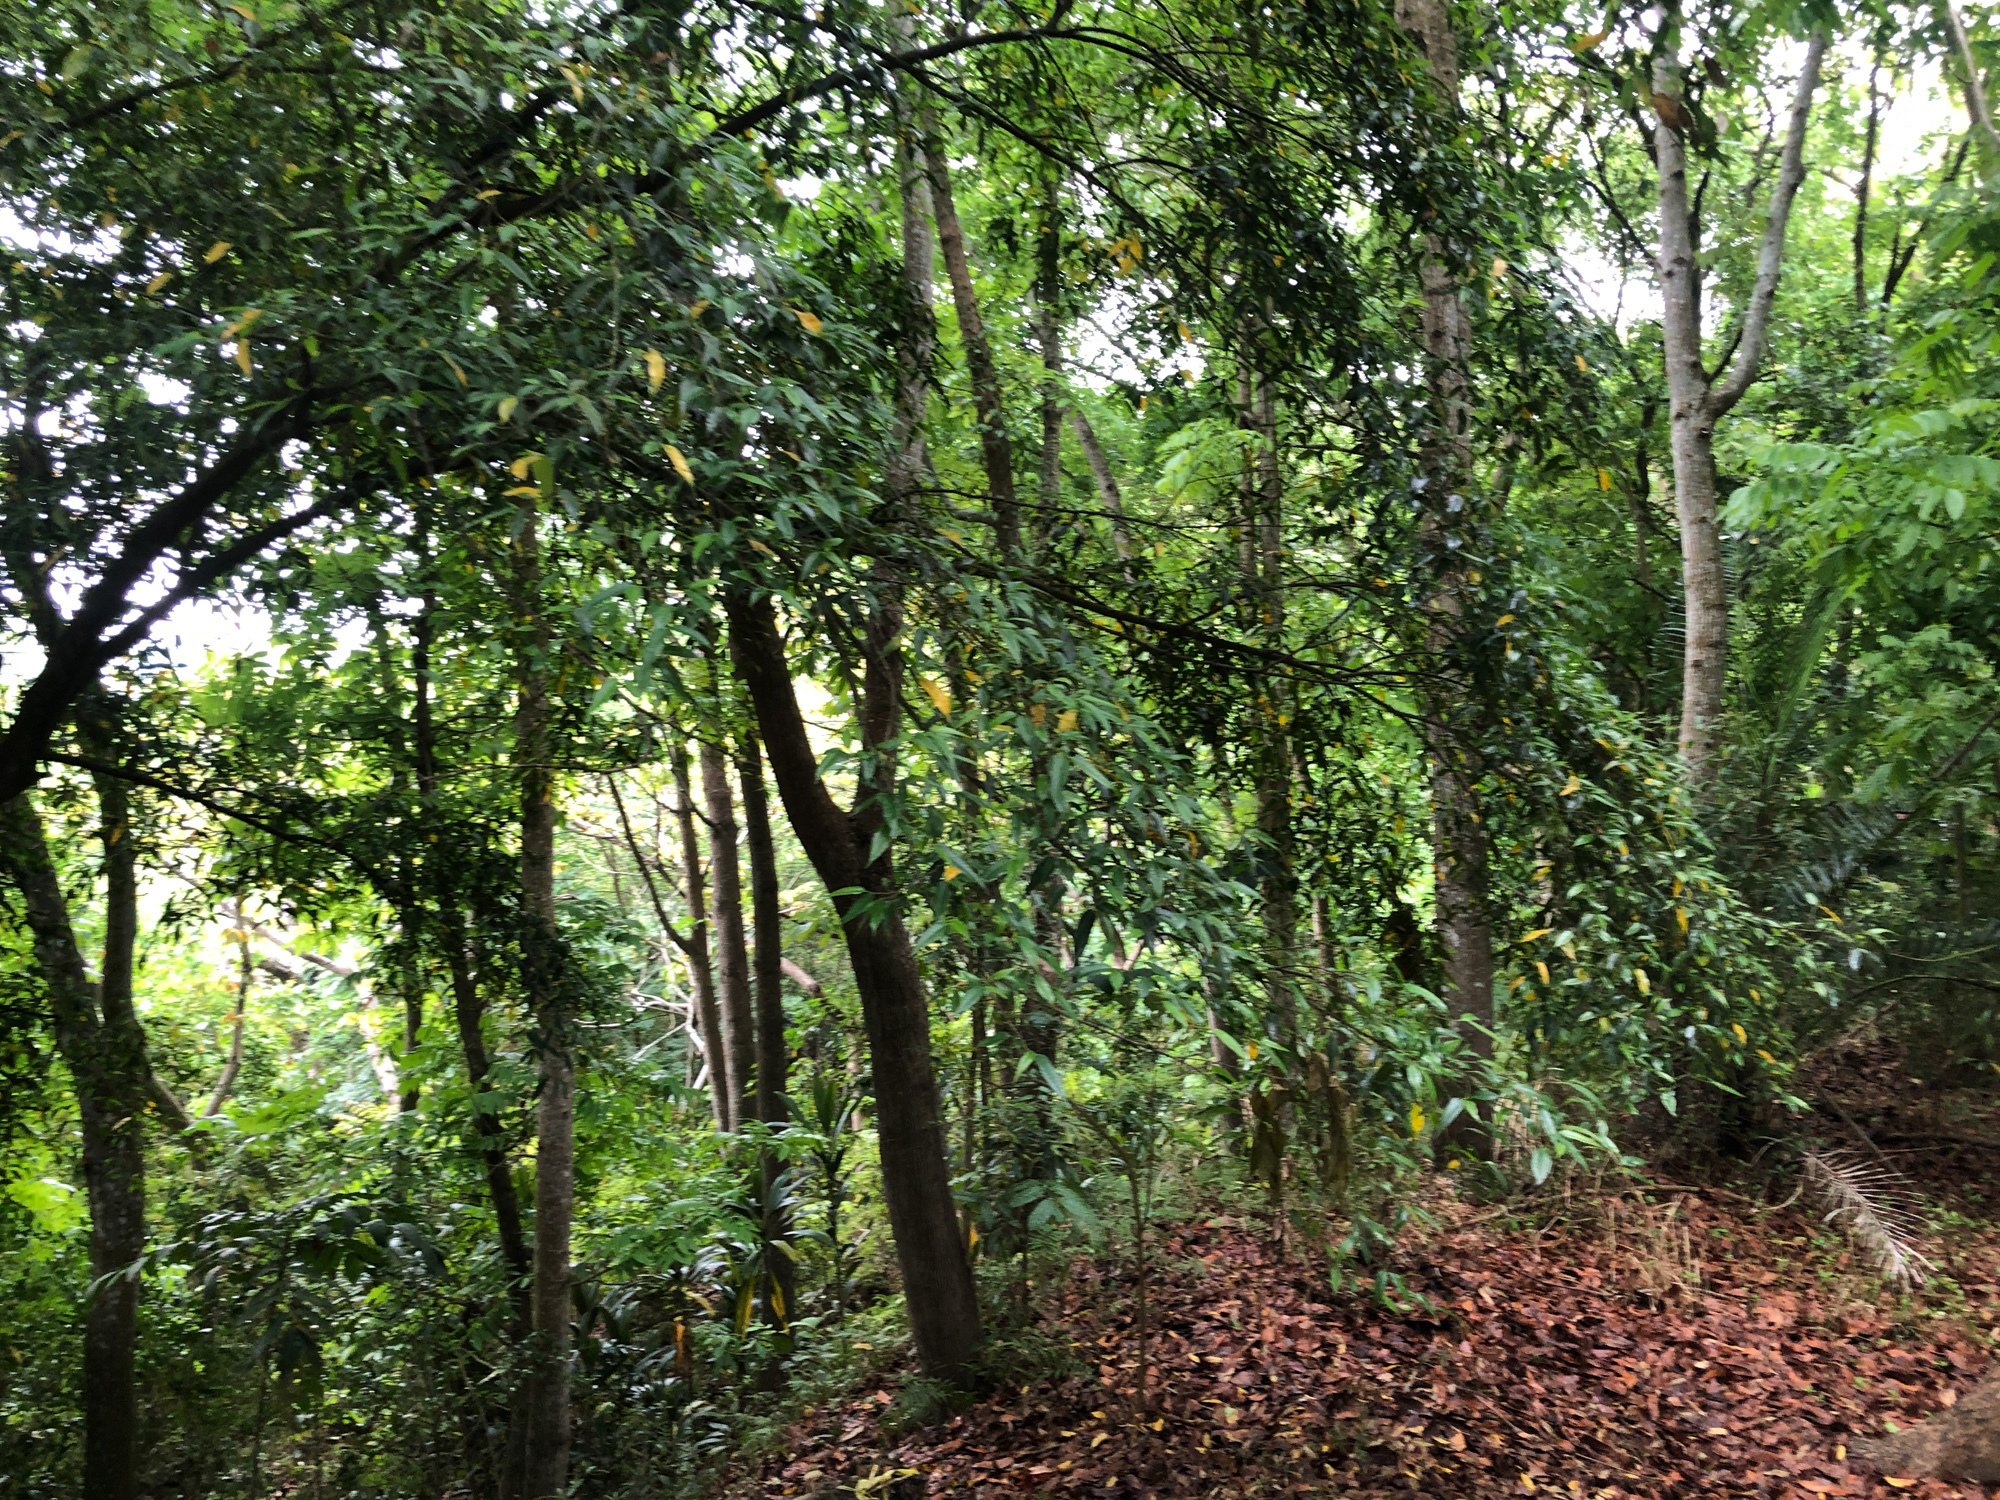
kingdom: Plantae
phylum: Tracheophyta
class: Magnoliopsida
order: Rosales
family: Moraceae
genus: Ficus
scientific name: Ficus ampelos
